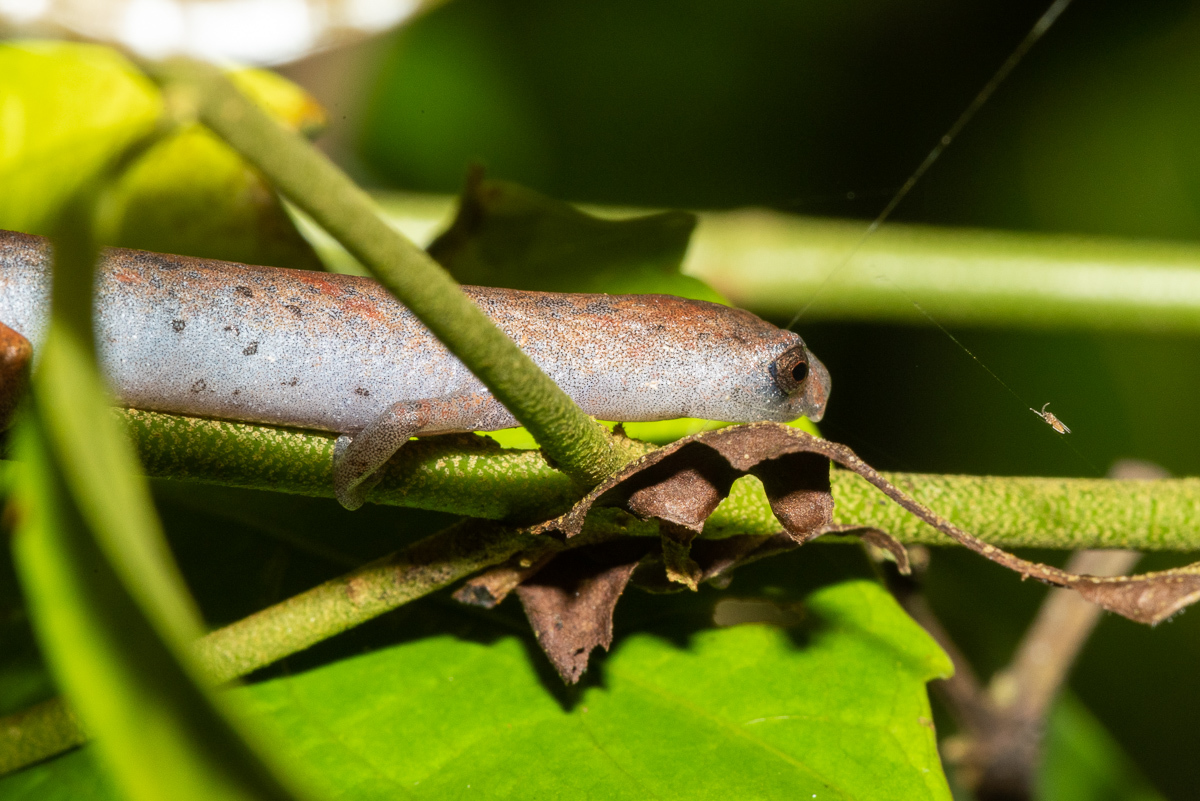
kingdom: Animalia
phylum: Chordata
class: Amphibia
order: Caudata
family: Plethodontidae
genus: Bolitoglossa
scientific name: Bolitoglossa altamazonica
